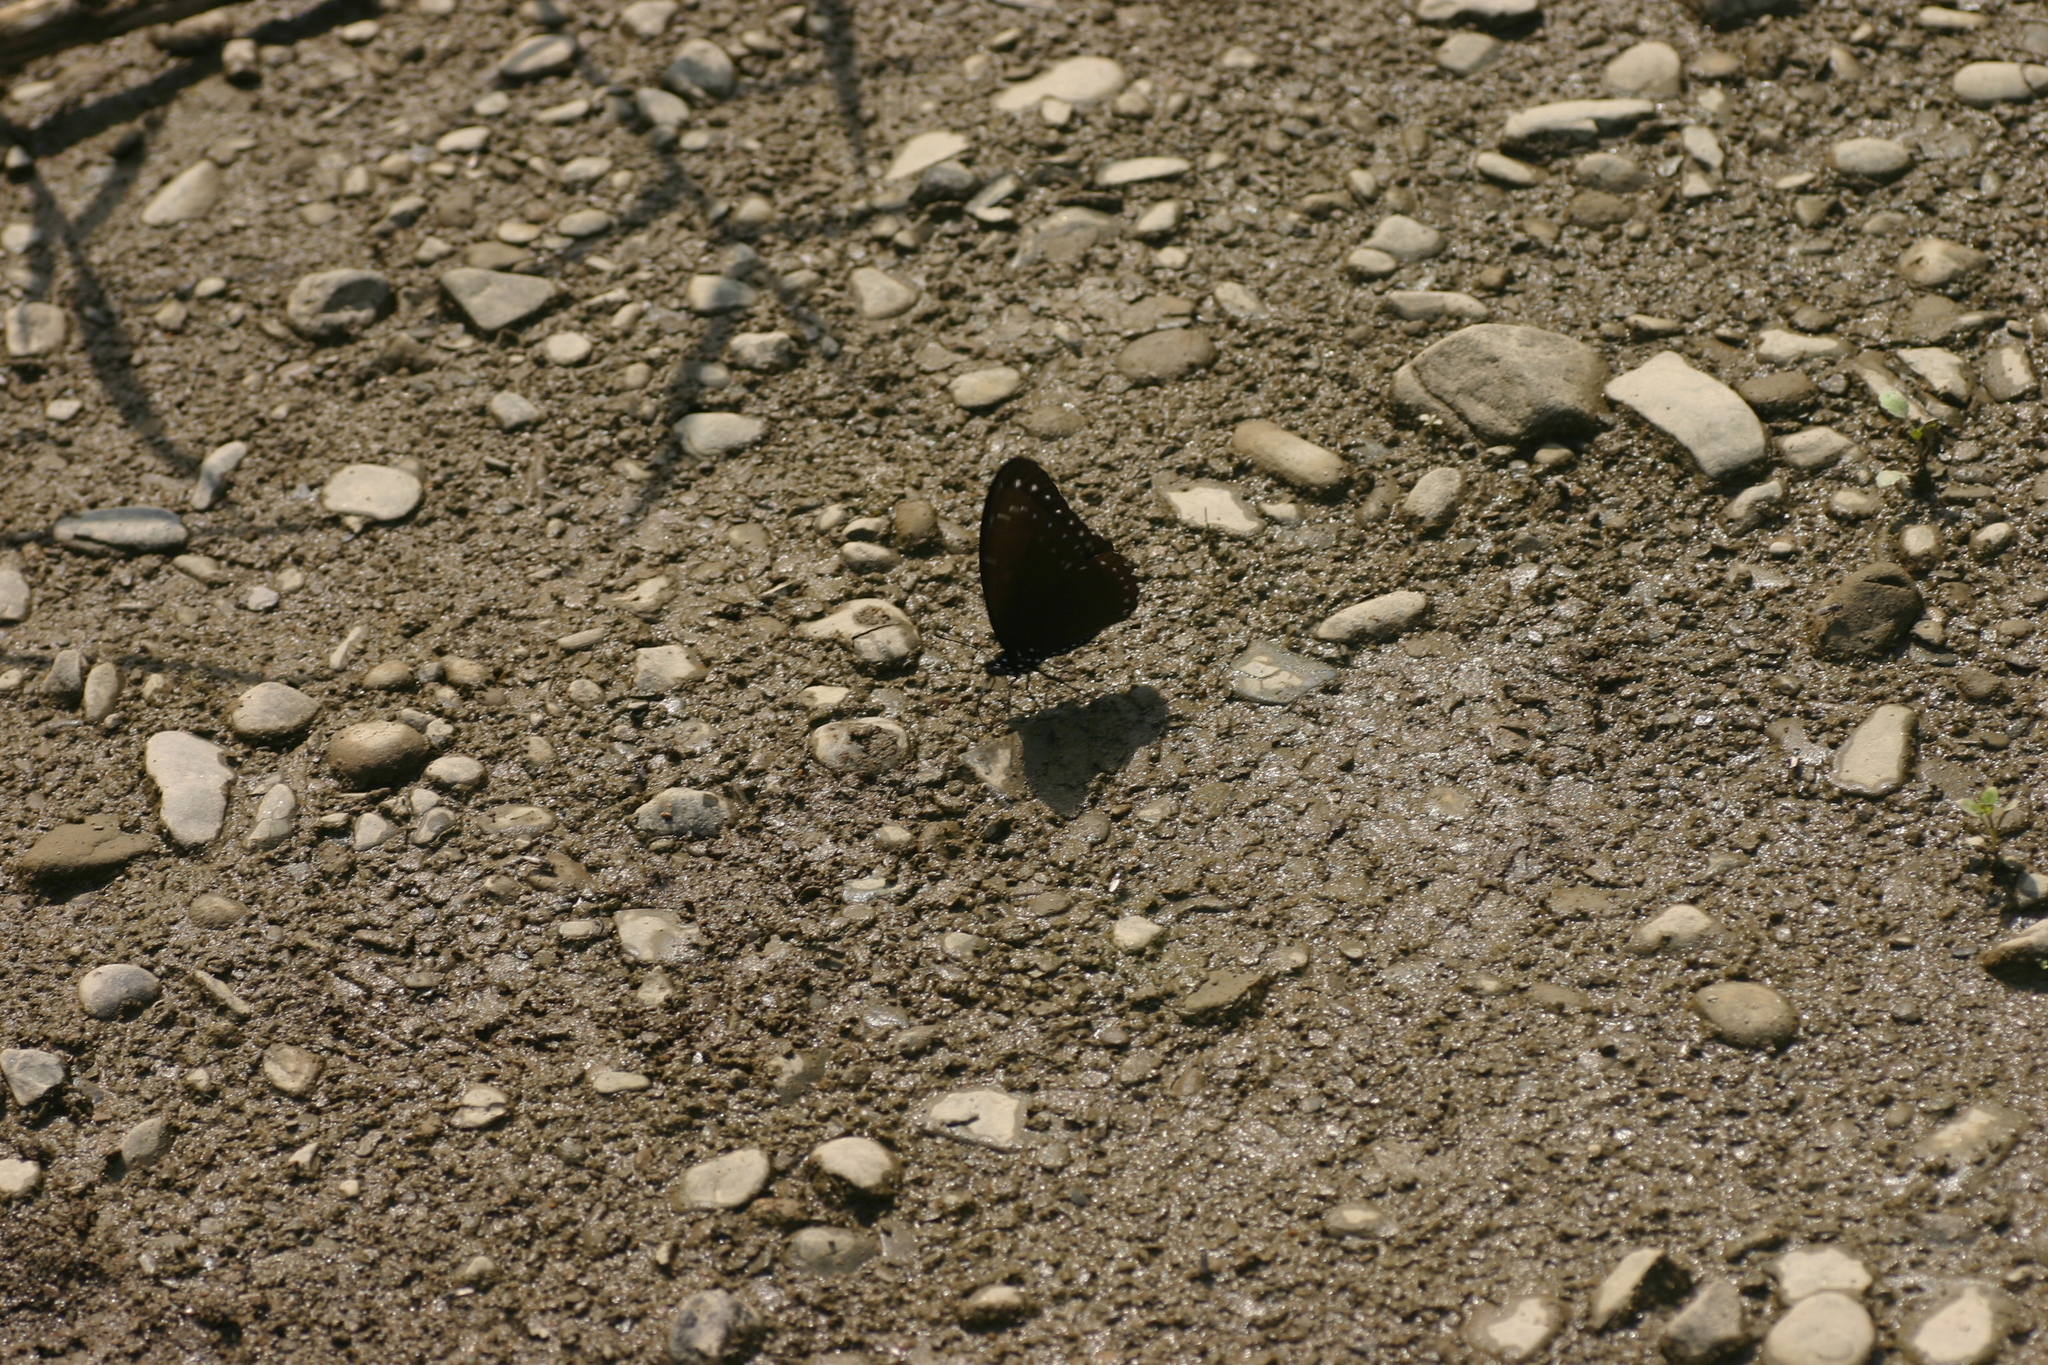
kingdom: Animalia
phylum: Arthropoda
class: Insecta
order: Lepidoptera
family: Papilionidae
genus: Papilio
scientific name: Papilio paradoxa
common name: Great blue mime swallowtail
